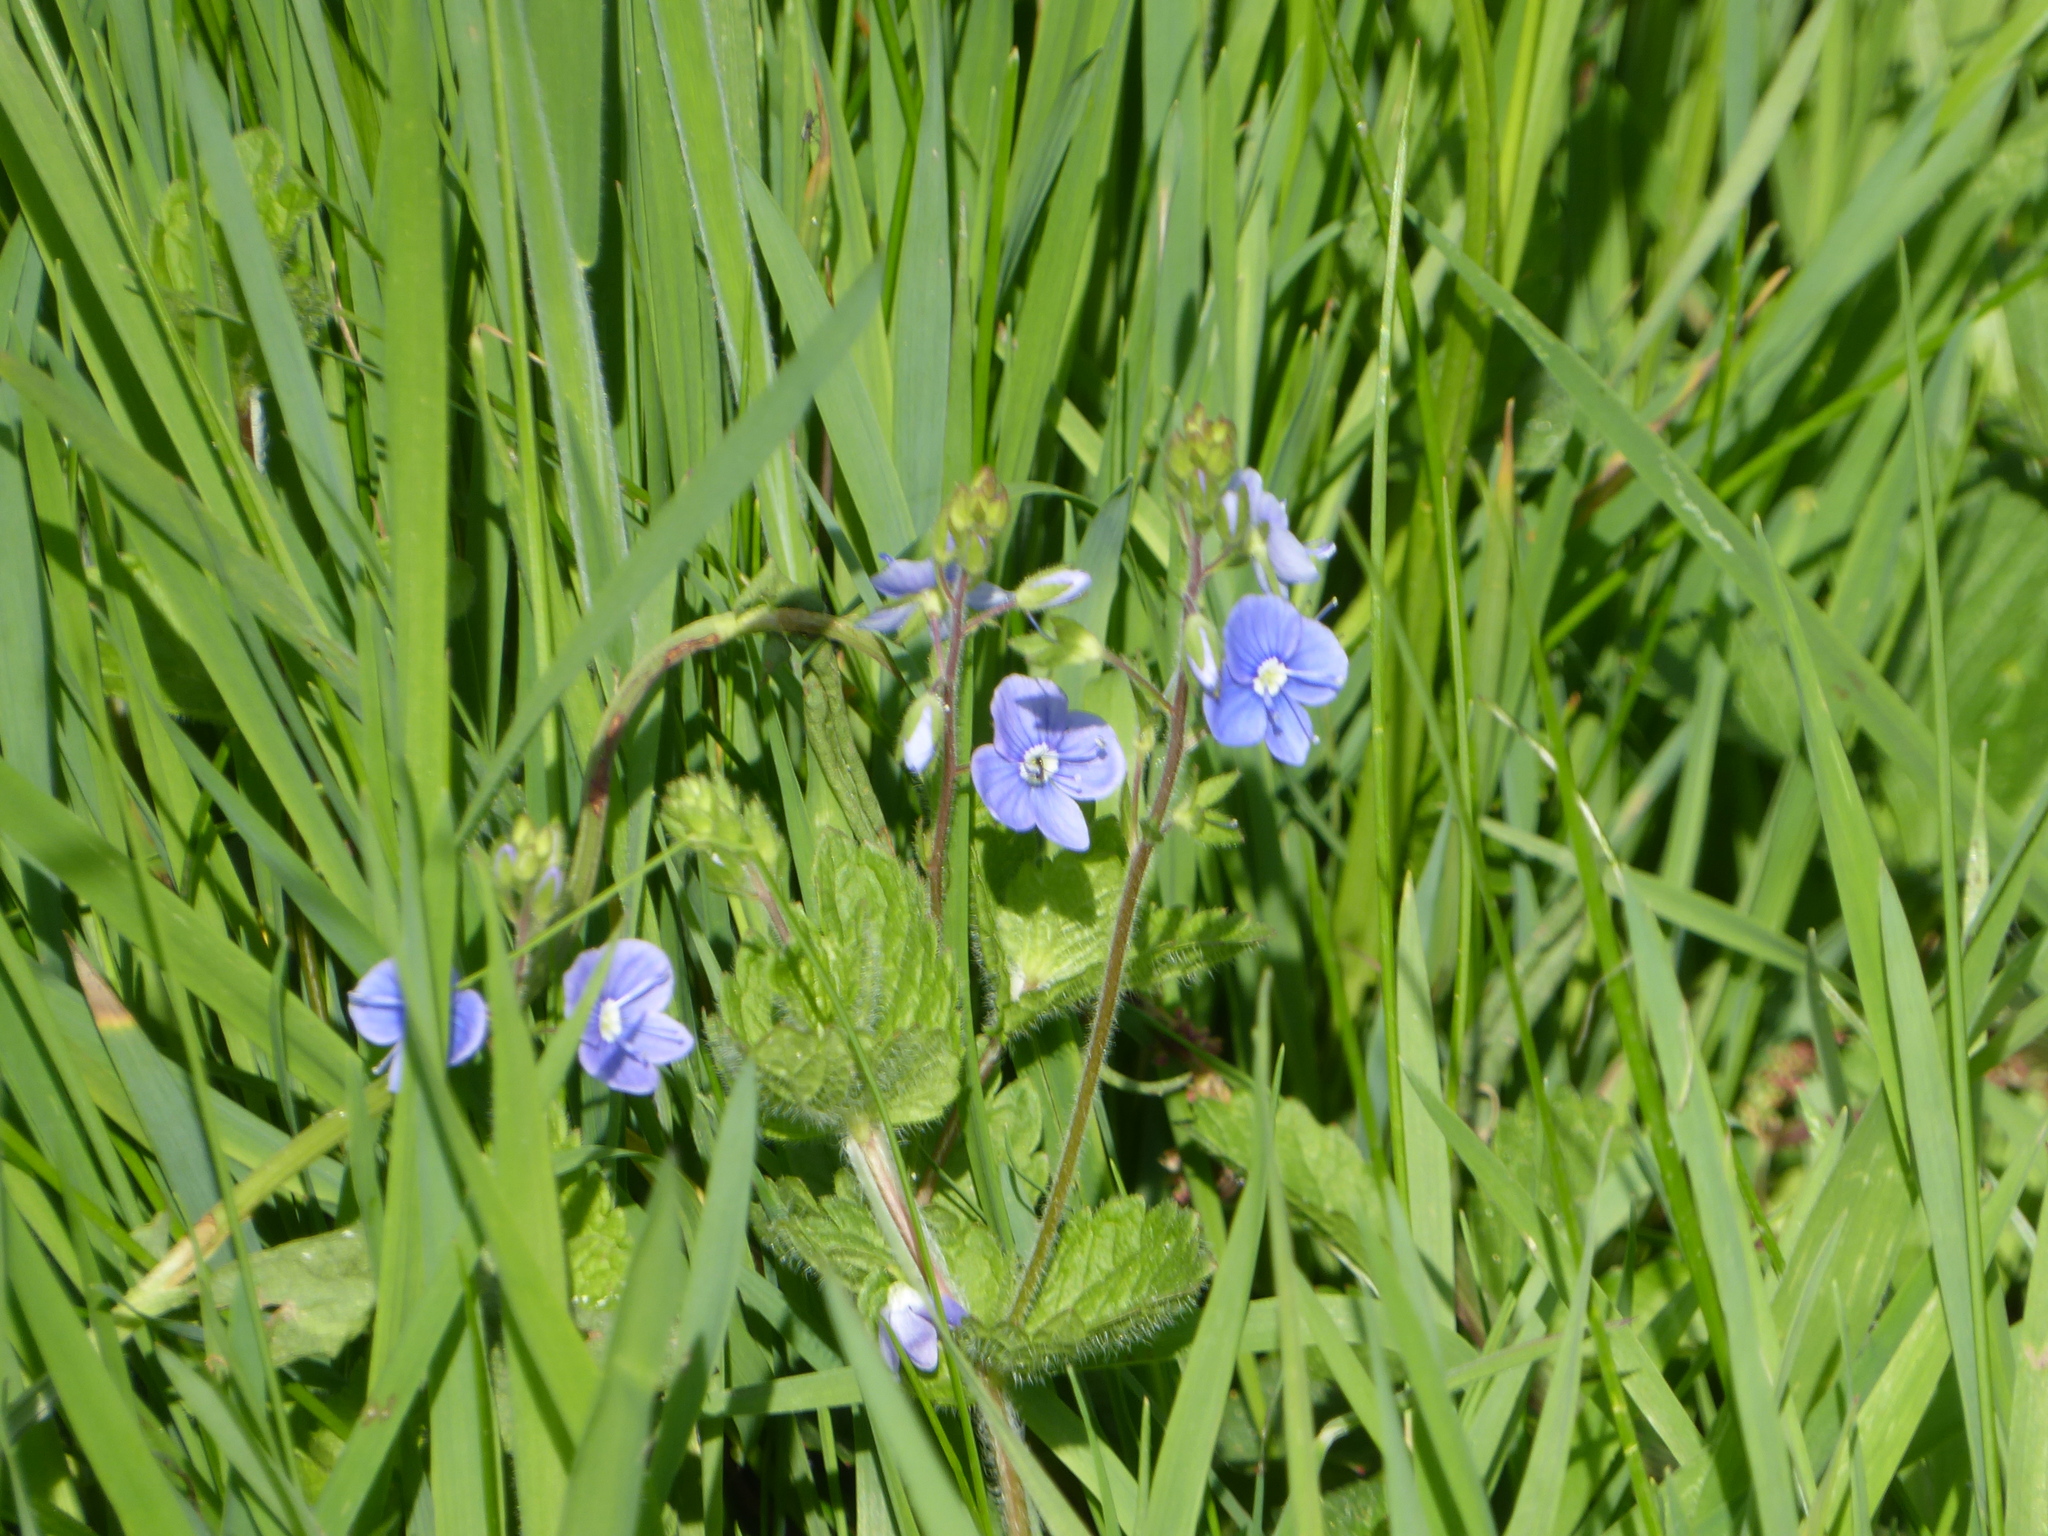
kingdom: Plantae
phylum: Tracheophyta
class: Magnoliopsida
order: Lamiales
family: Plantaginaceae
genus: Veronica
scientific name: Veronica chamaedrys
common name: Germander speedwell
